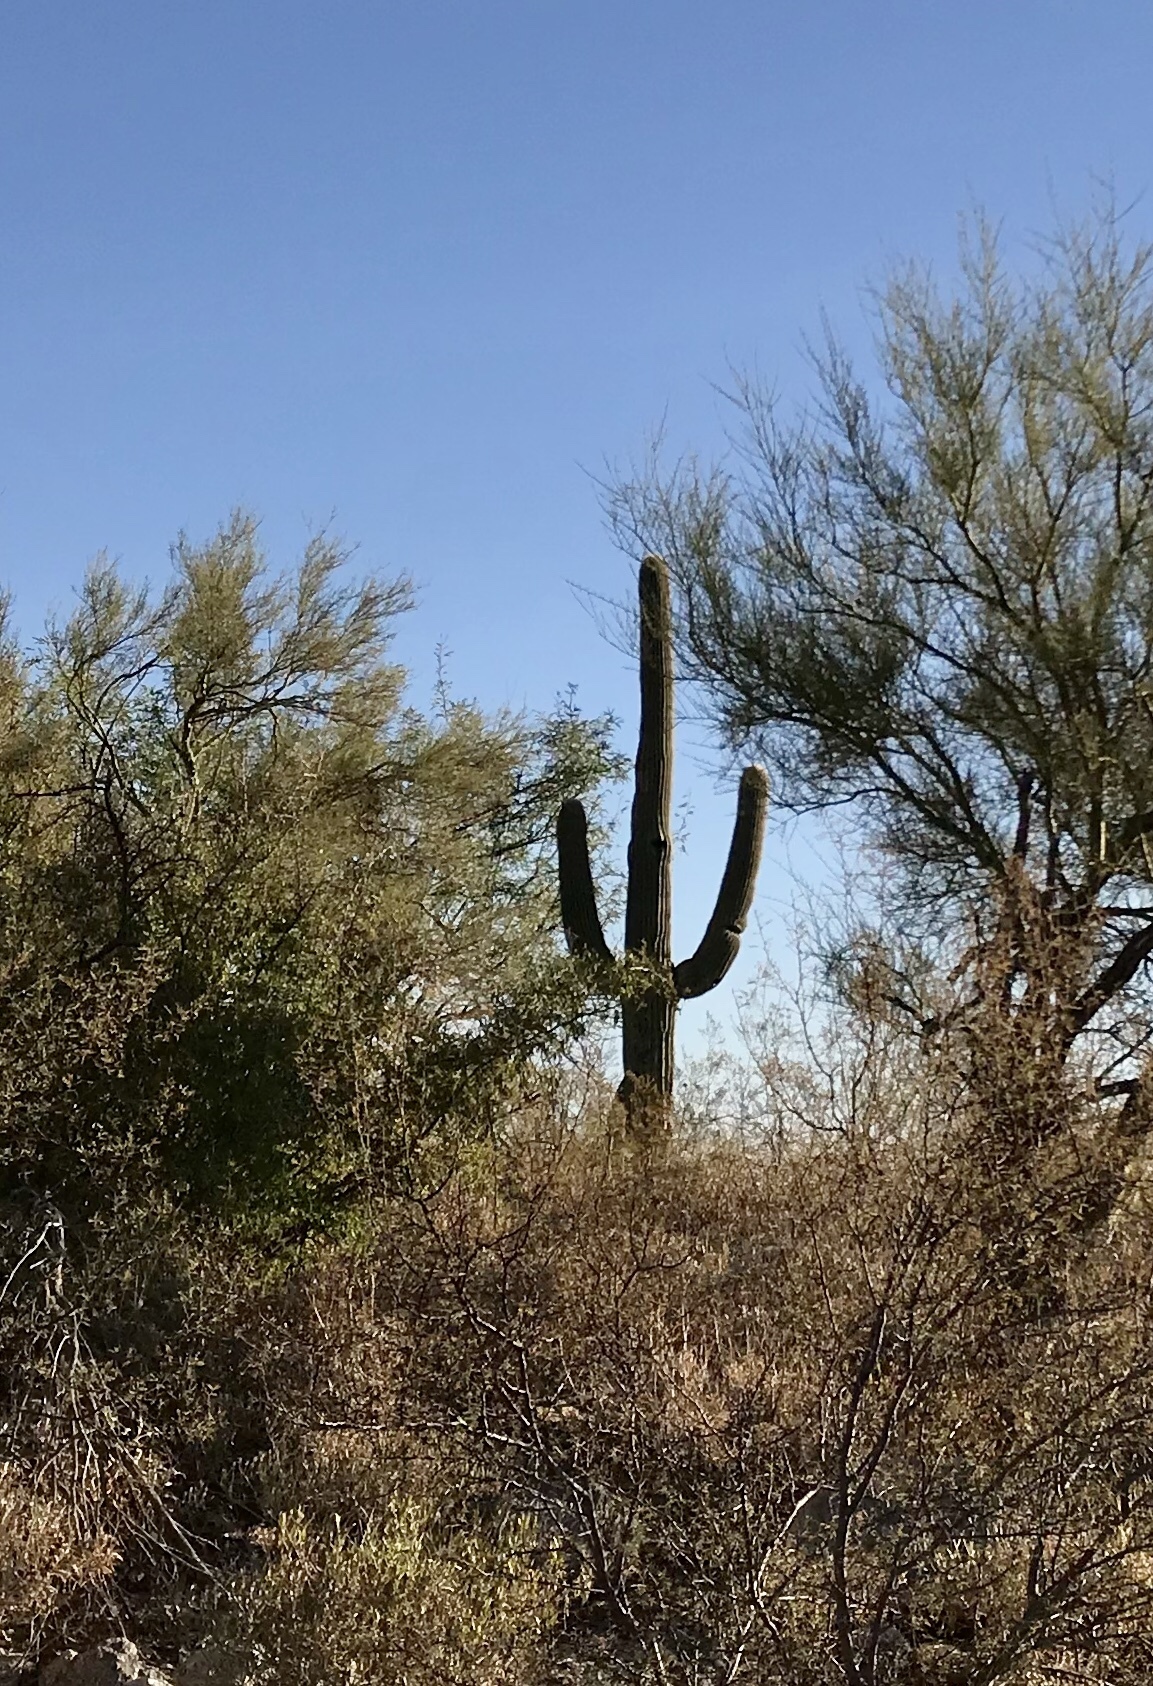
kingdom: Plantae
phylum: Tracheophyta
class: Magnoliopsida
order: Caryophyllales
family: Cactaceae
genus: Carnegiea
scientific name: Carnegiea gigantea
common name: Saguaro
